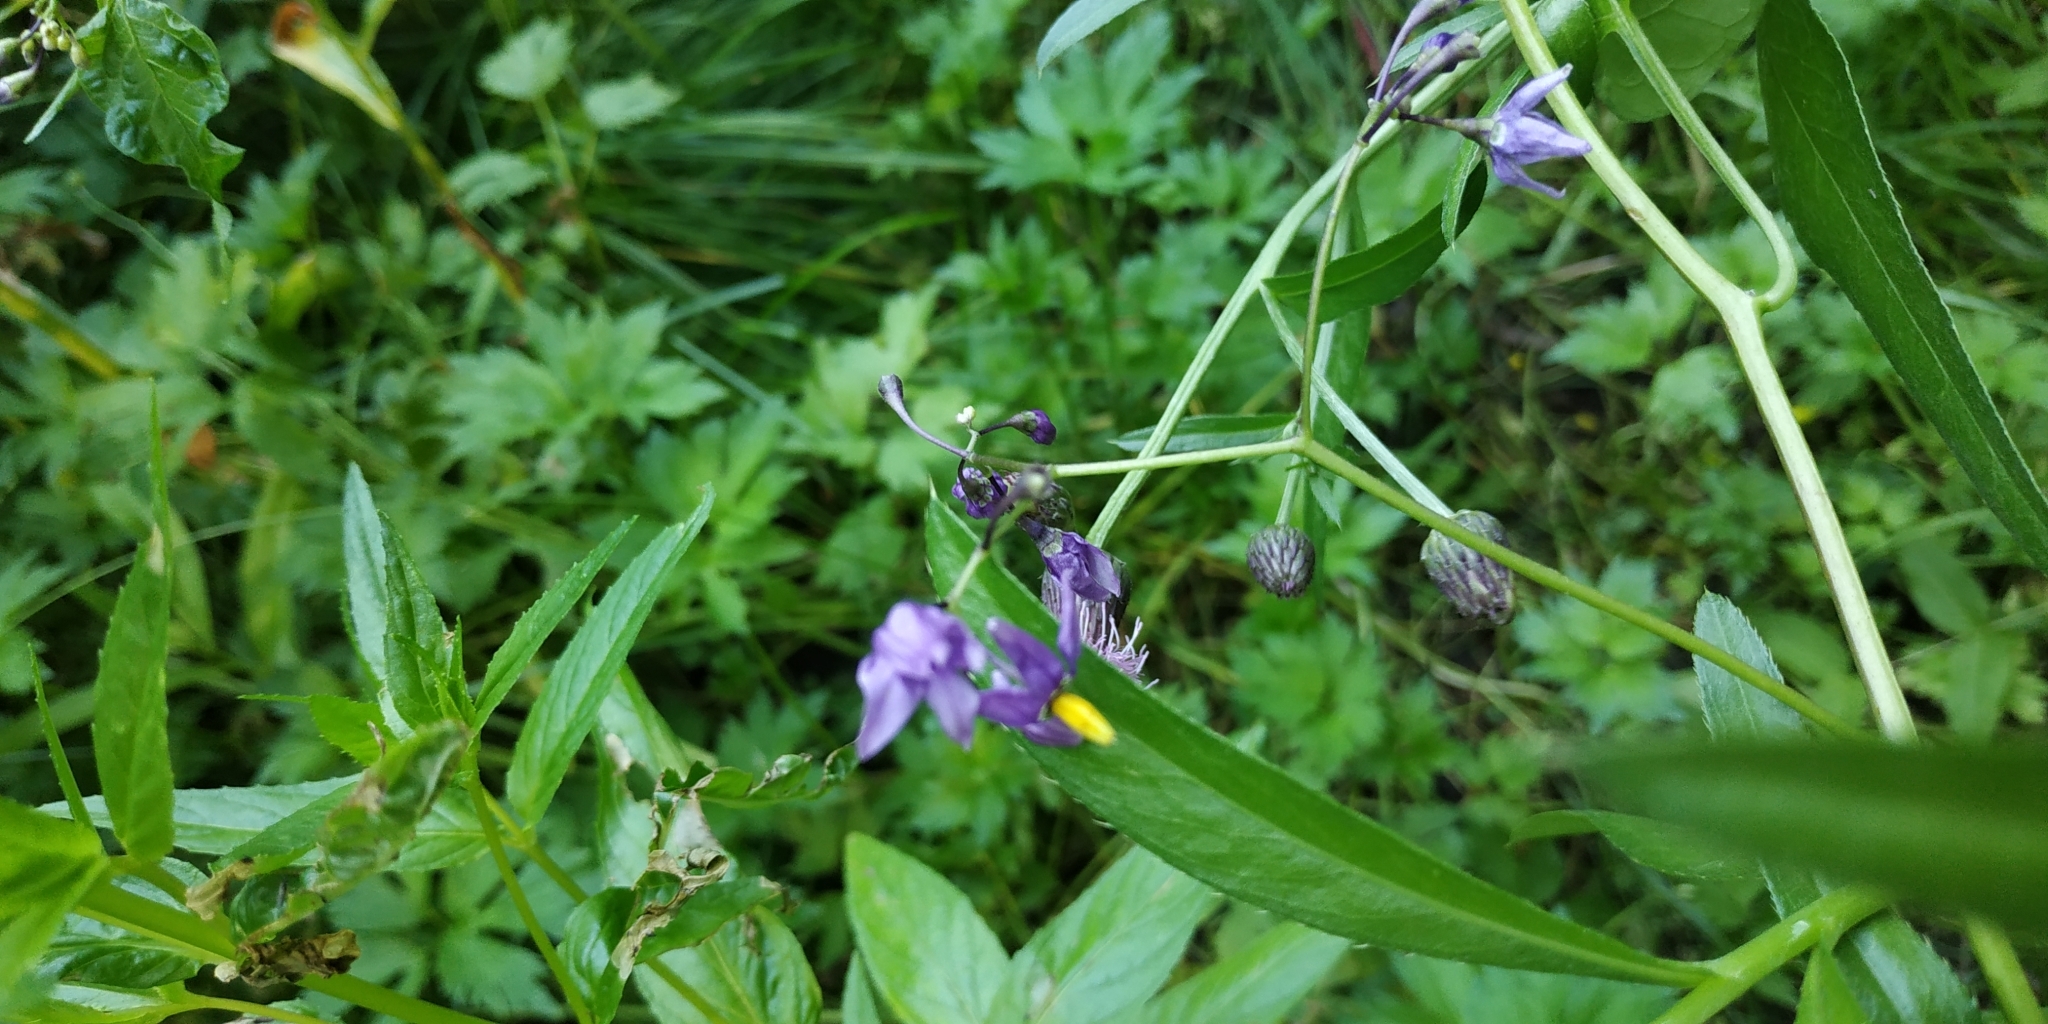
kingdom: Plantae
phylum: Tracheophyta
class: Magnoliopsida
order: Solanales
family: Solanaceae
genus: Solanum
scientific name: Solanum dulcamara
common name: Climbing nightshade
